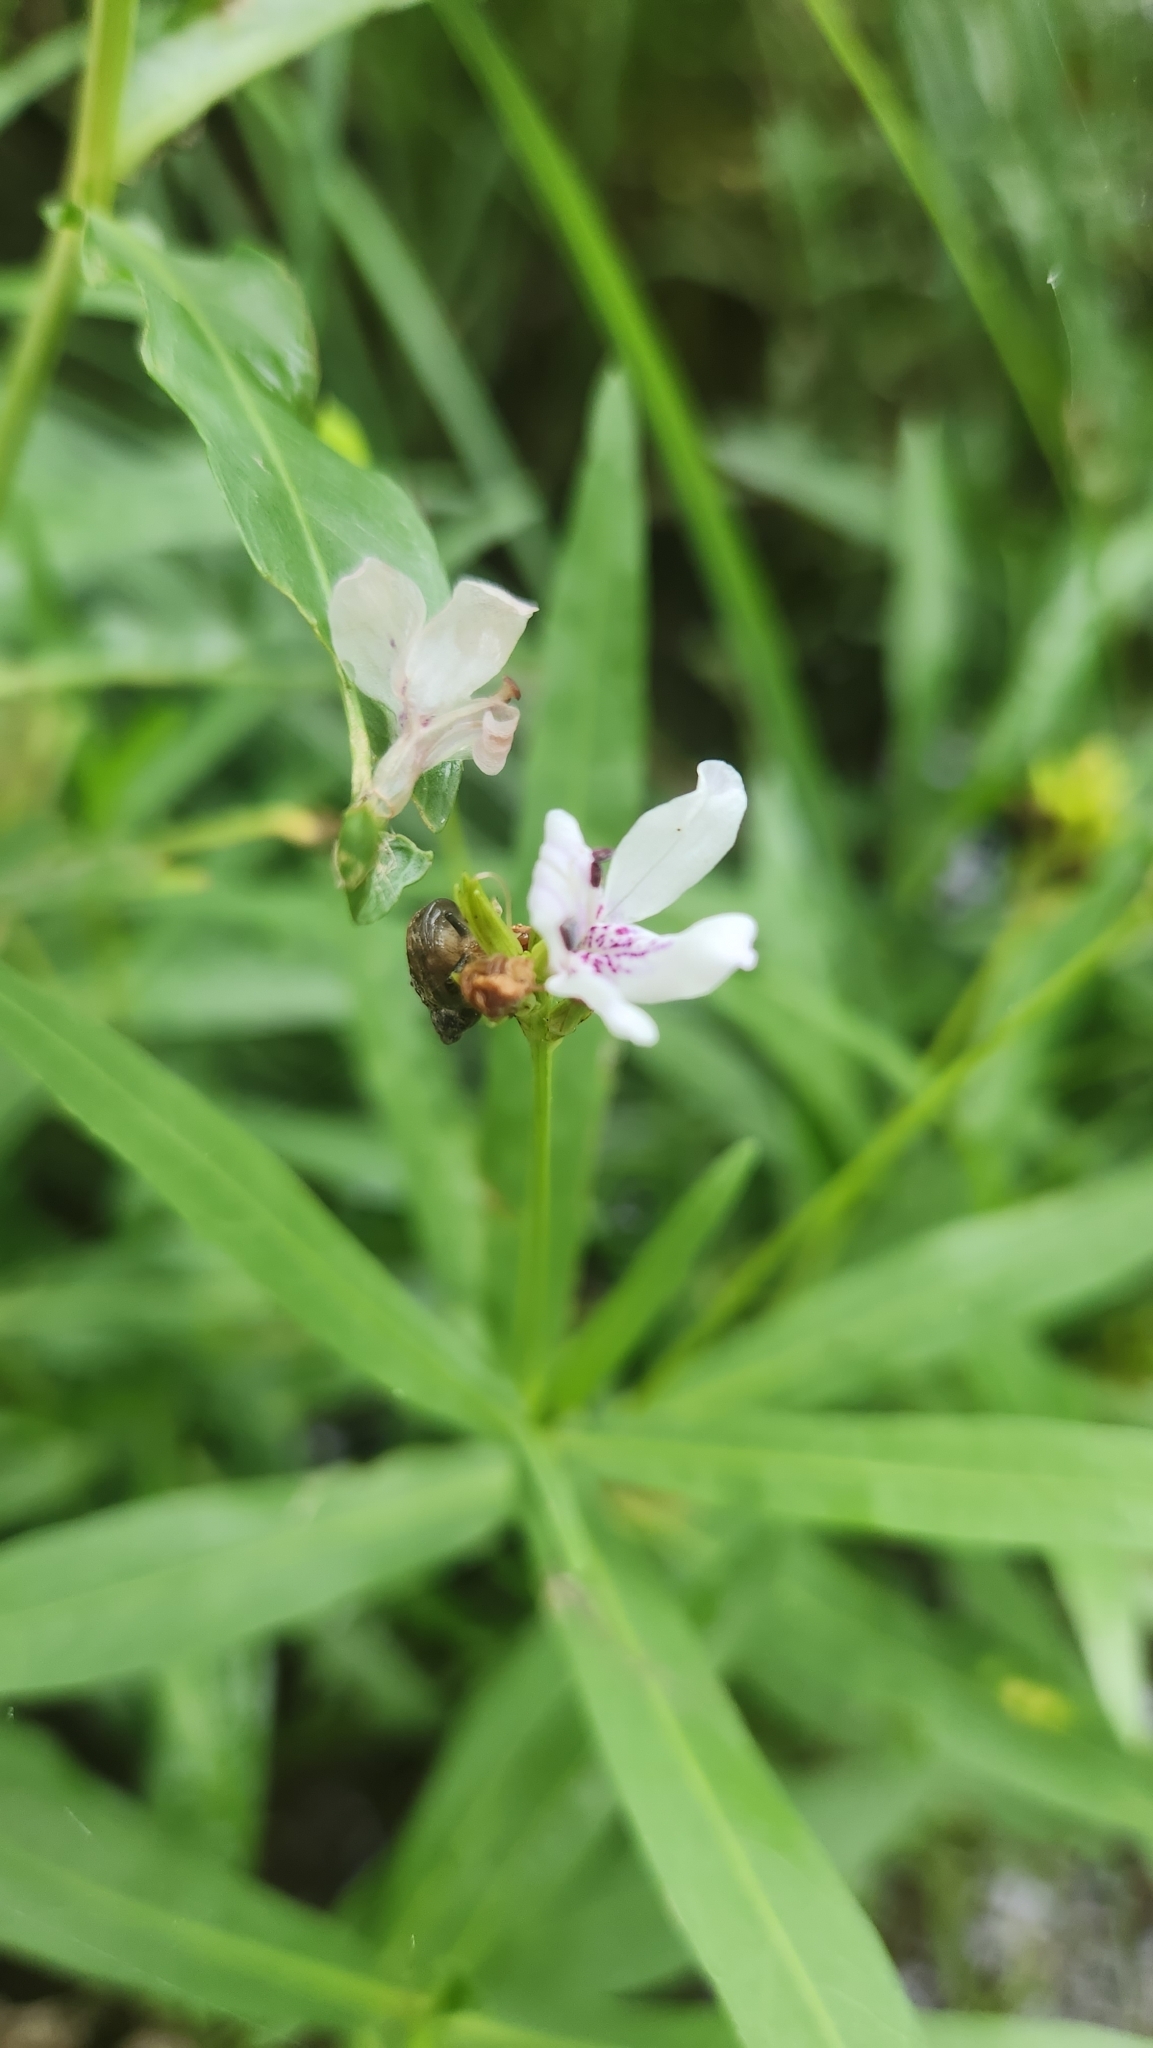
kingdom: Plantae
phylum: Tracheophyta
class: Magnoliopsida
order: Lamiales
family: Acanthaceae
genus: Dianthera
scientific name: Dianthera americana
